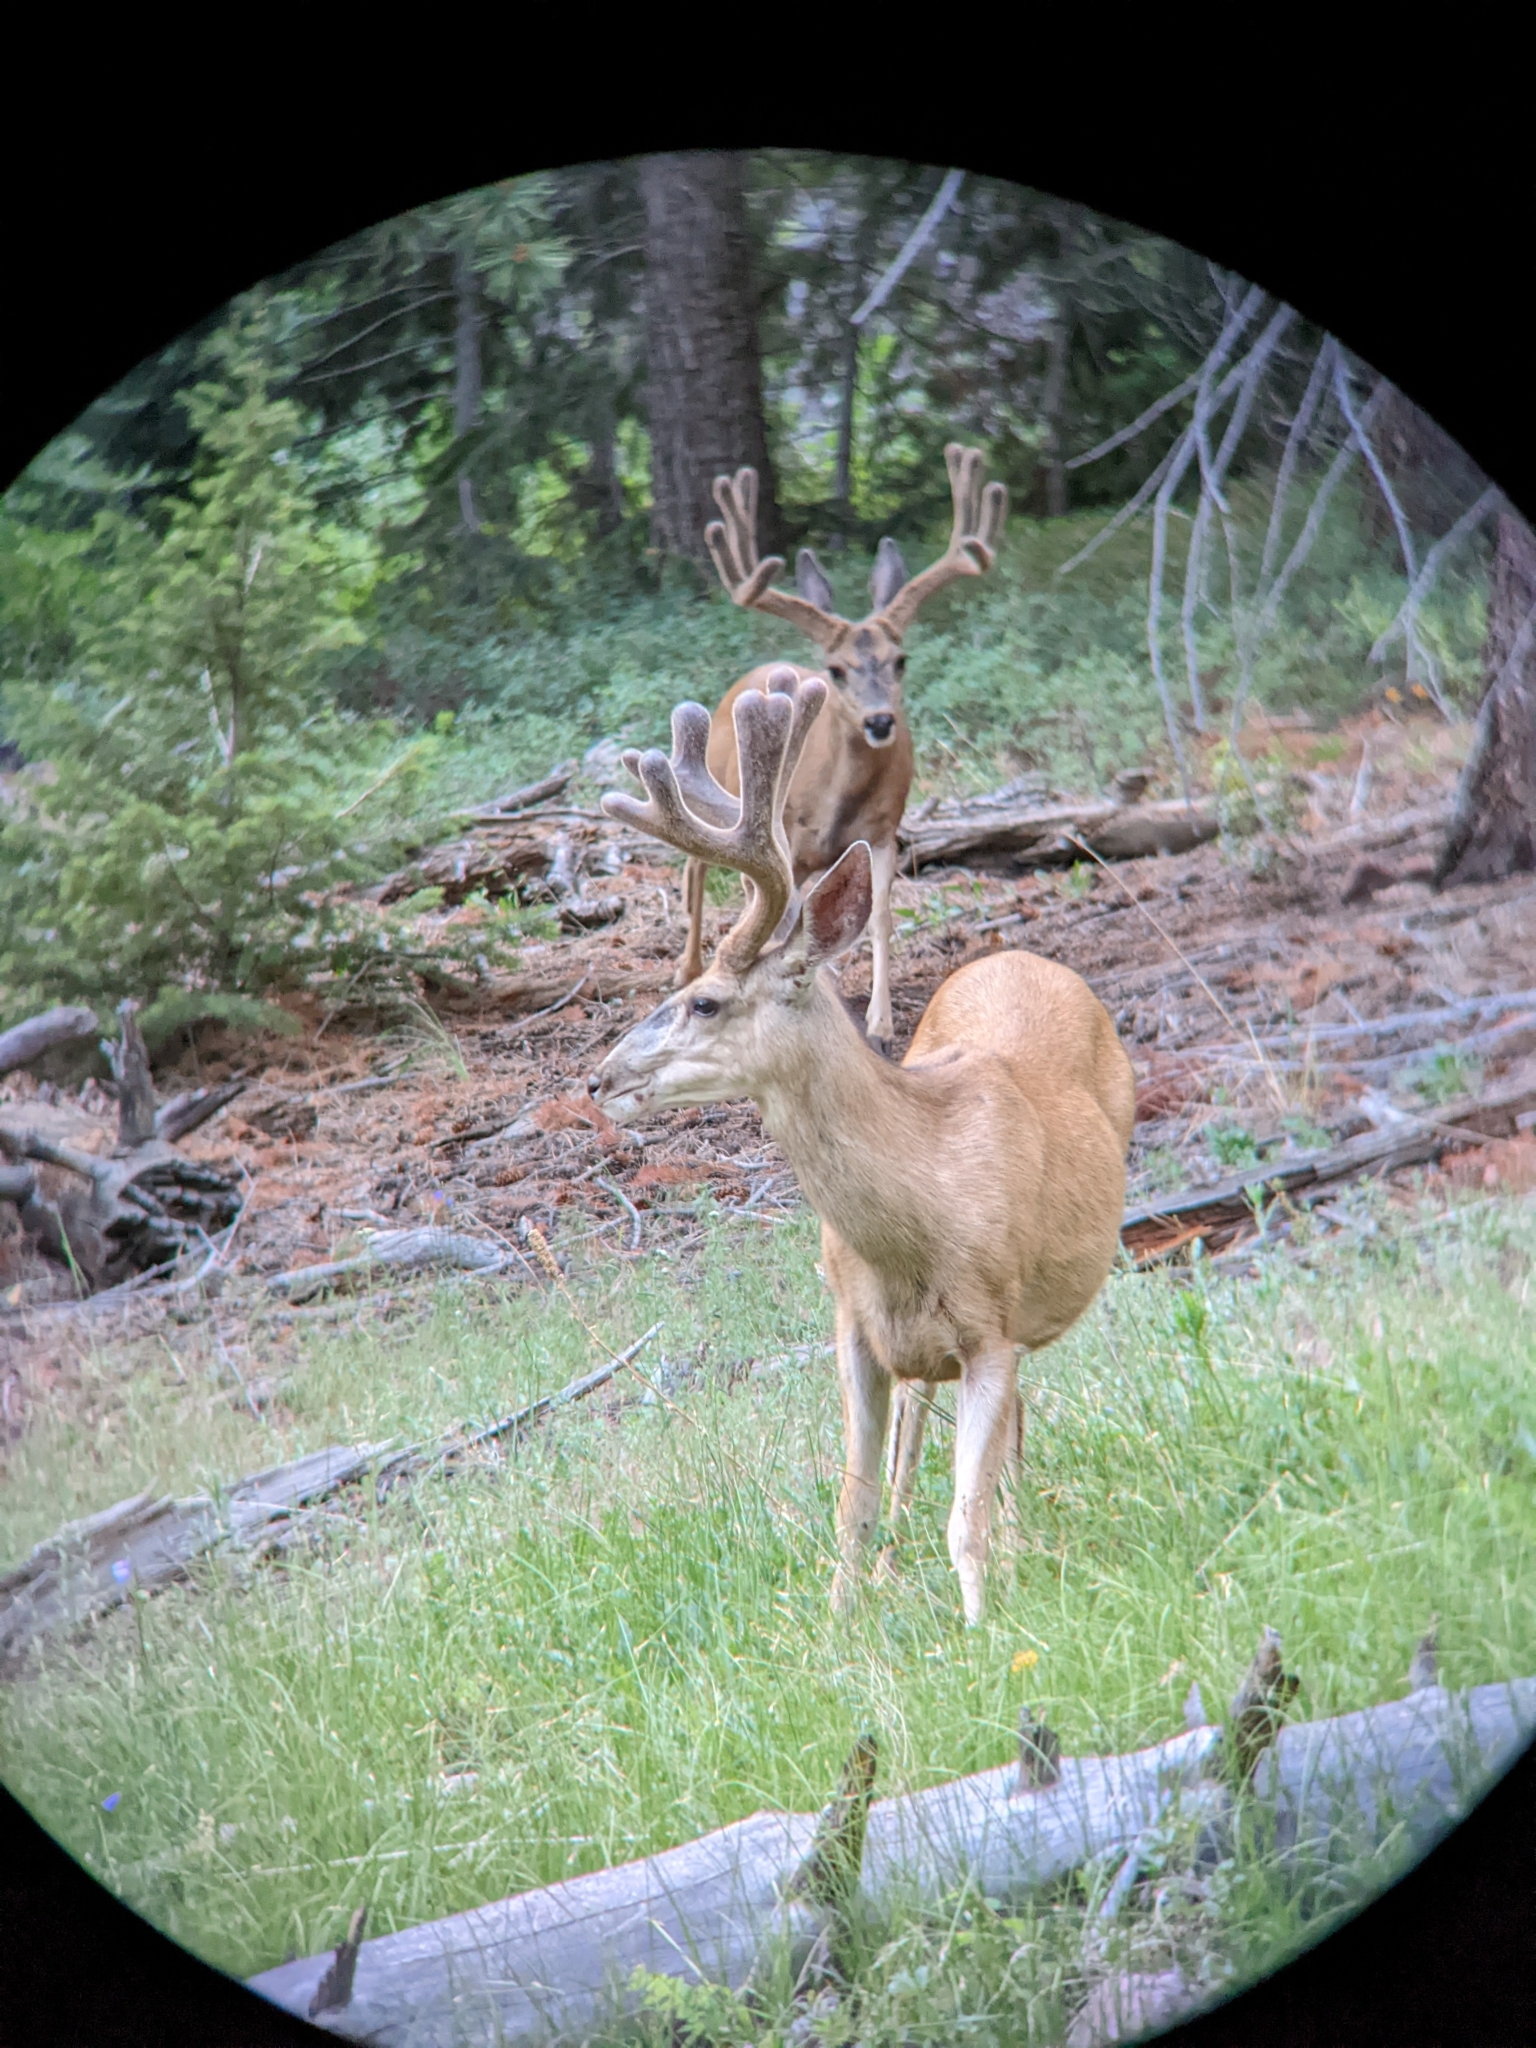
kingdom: Animalia
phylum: Chordata
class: Mammalia
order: Artiodactyla
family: Cervidae
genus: Odocoileus
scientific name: Odocoileus hemionus
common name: Mule deer
